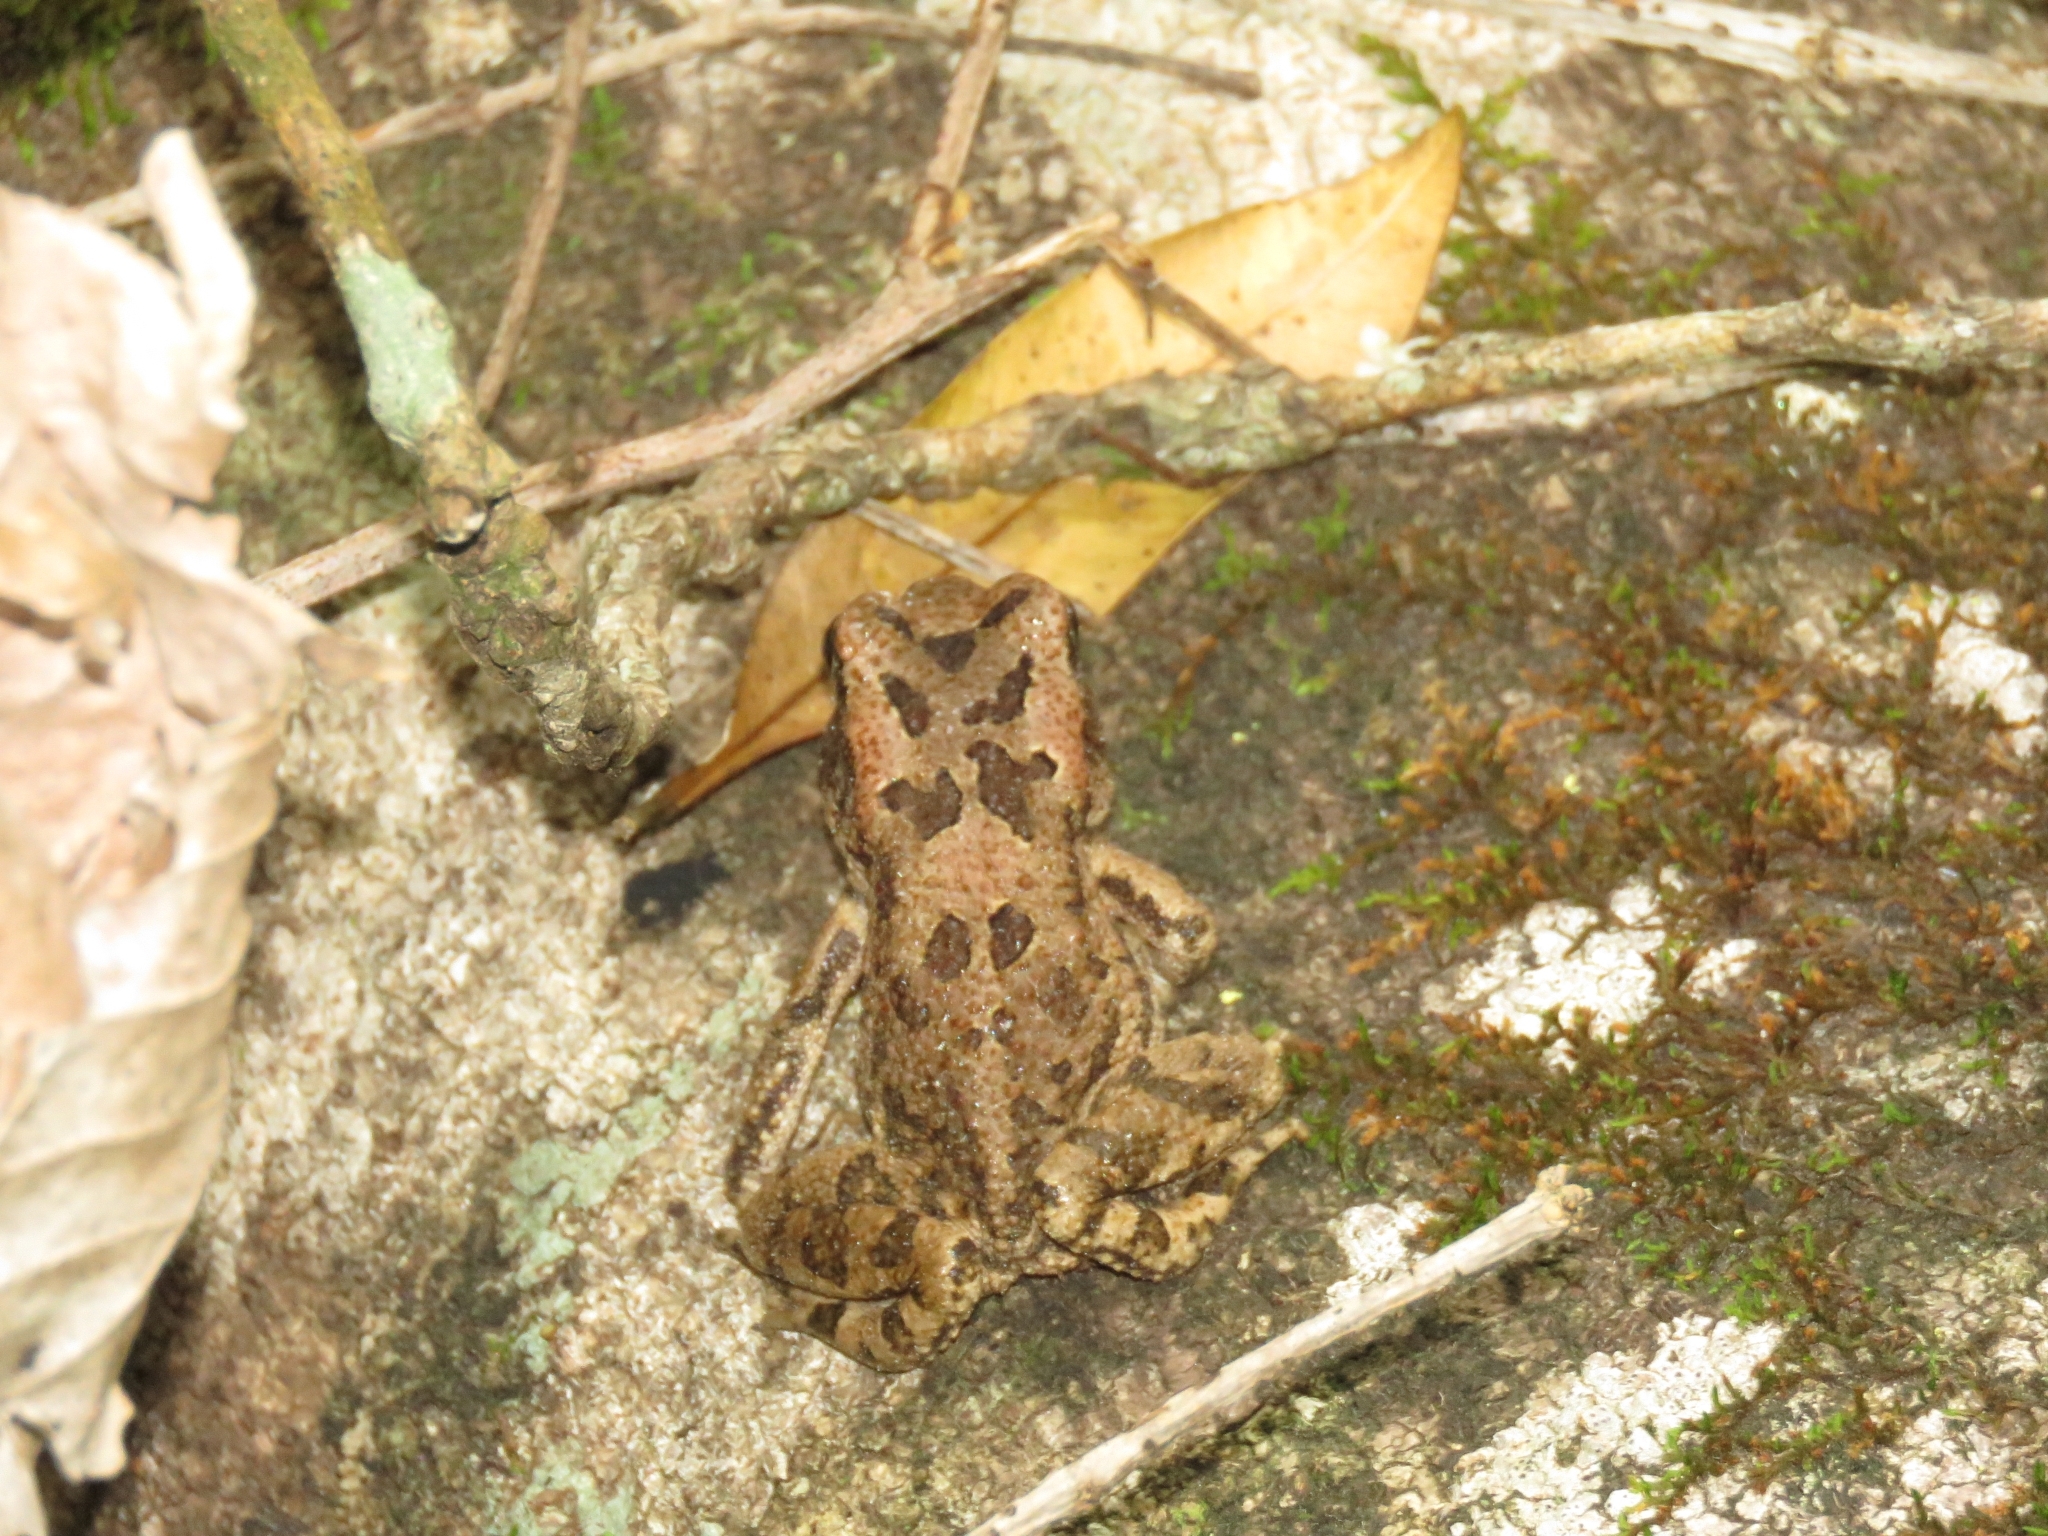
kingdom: Animalia
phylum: Chordata
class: Amphibia
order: Anura
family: Bufonidae
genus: Sclerophrys
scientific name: Sclerophrys capensis
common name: Ranger’s toad
